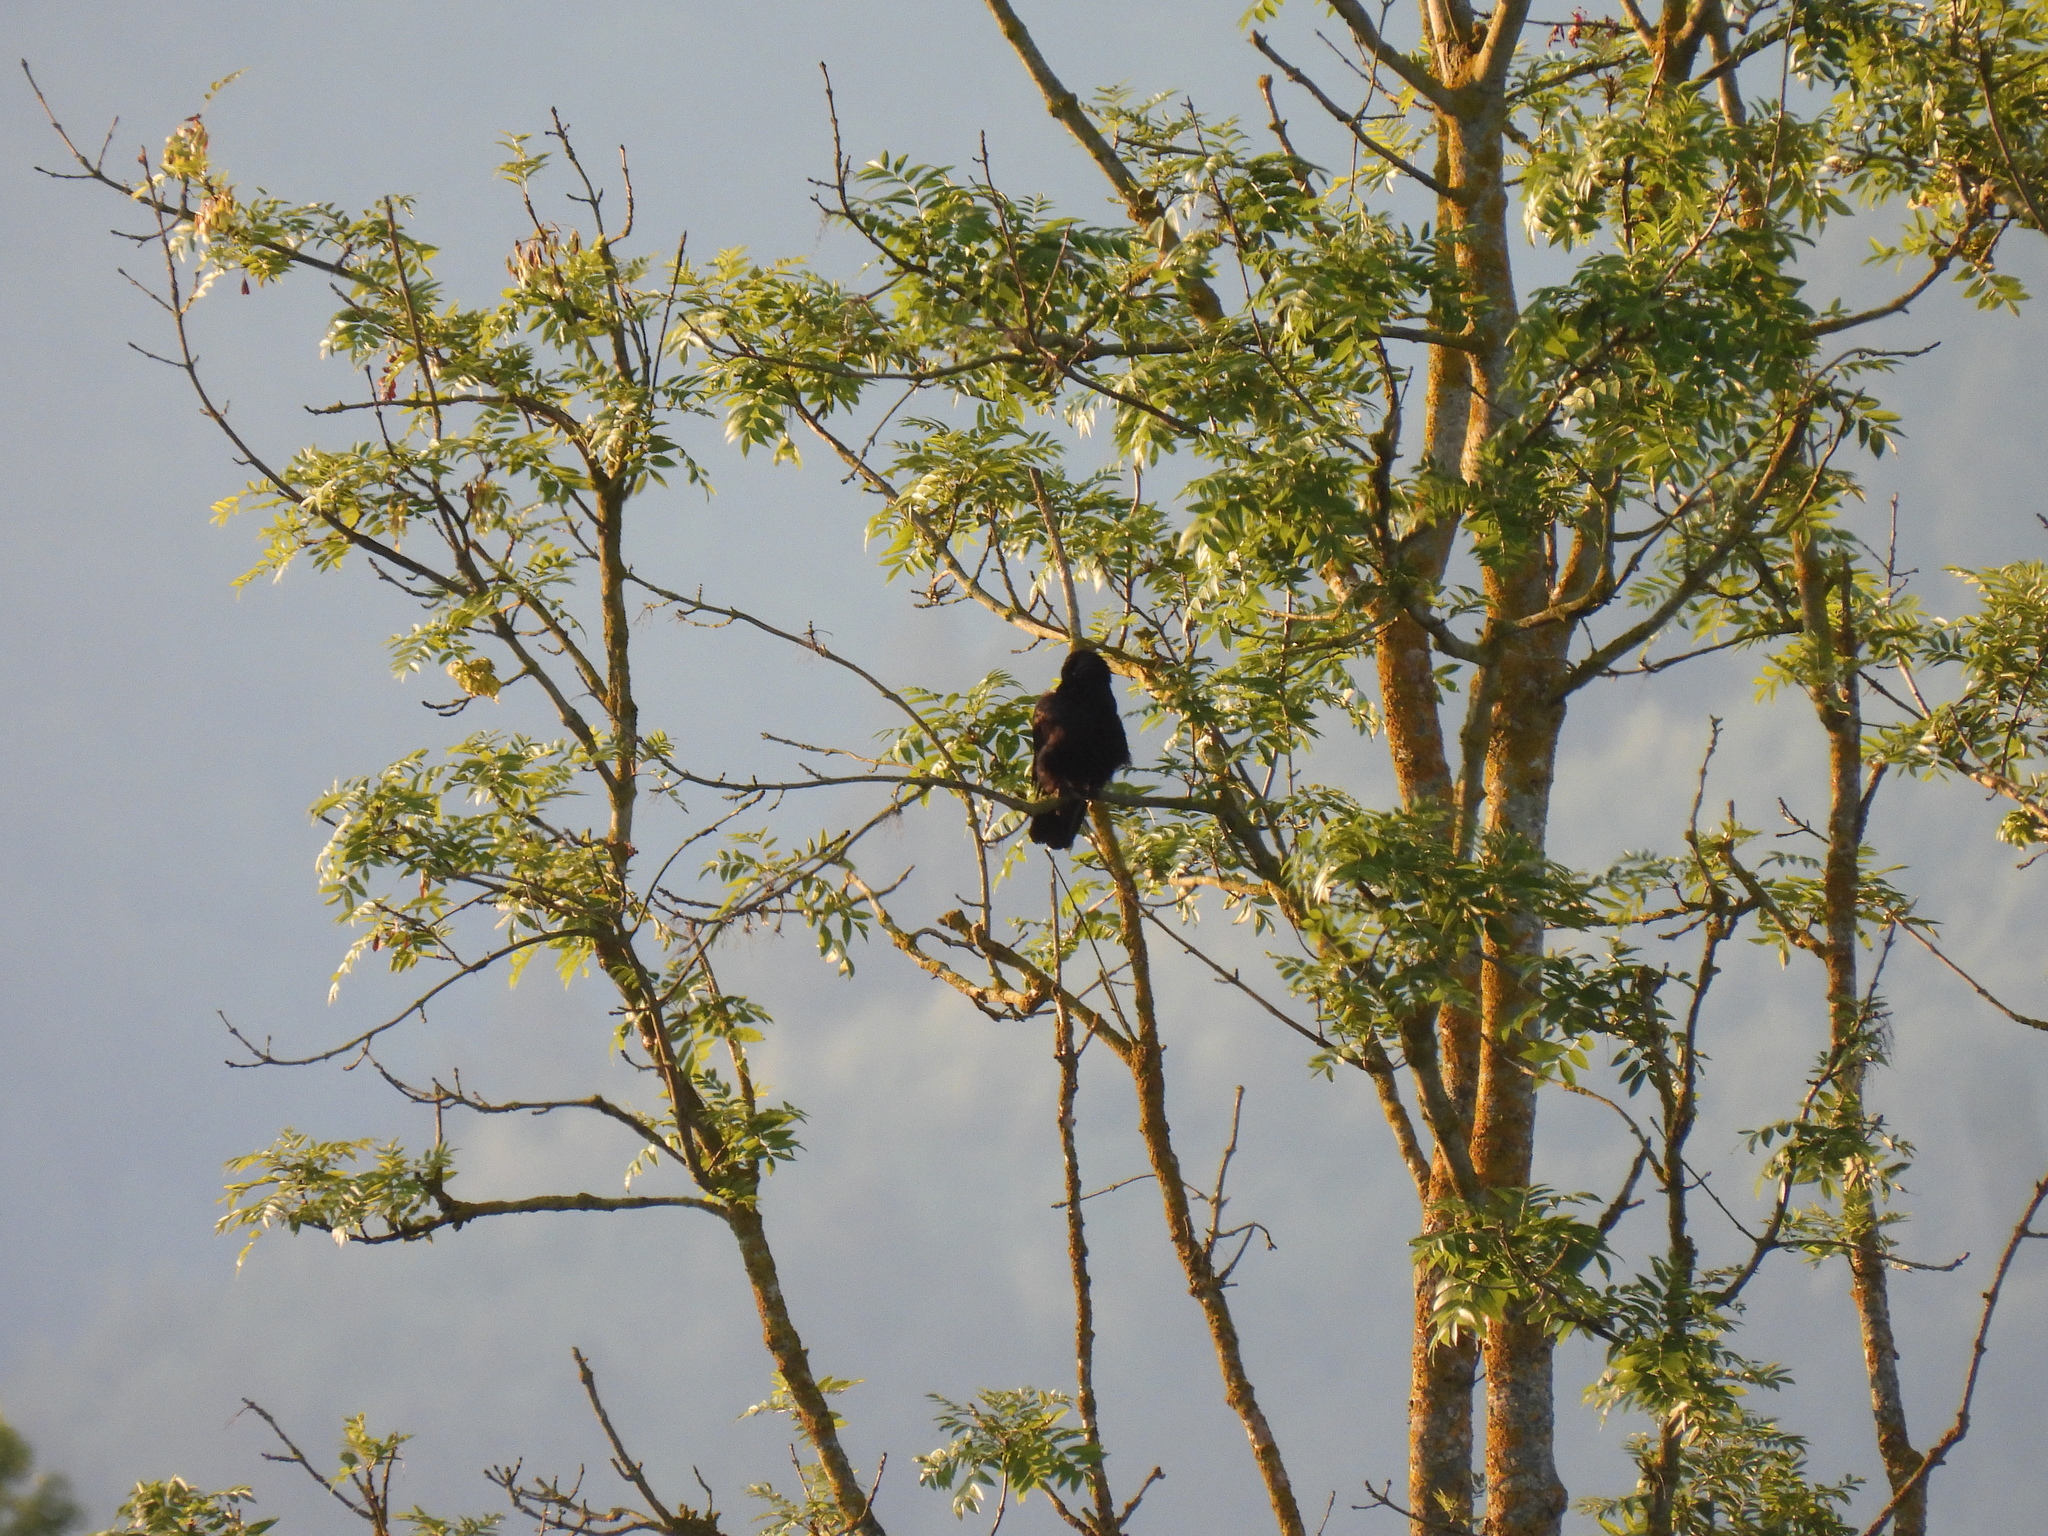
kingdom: Animalia
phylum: Chordata
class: Aves
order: Passeriformes
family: Corvidae
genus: Corvus
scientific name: Corvus corone
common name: Carrion crow
